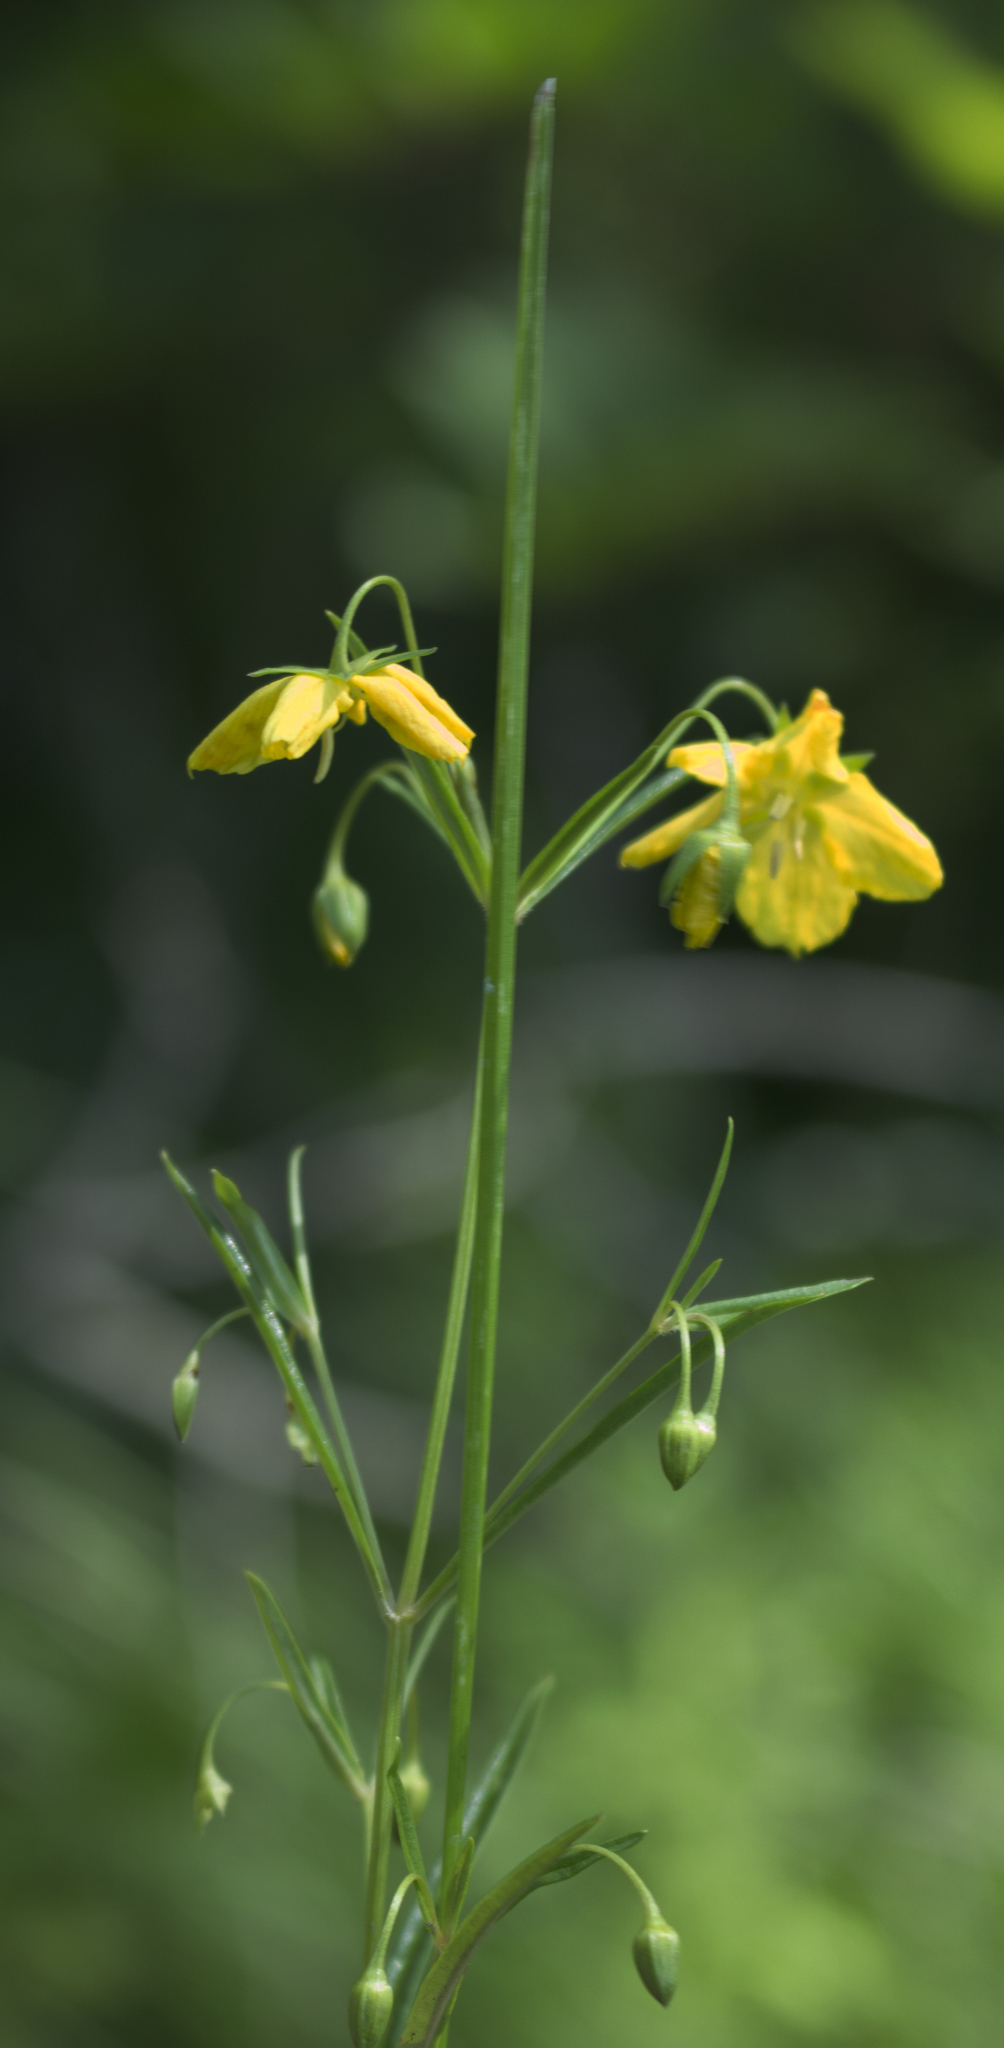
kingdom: Plantae
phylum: Tracheophyta
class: Magnoliopsida
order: Ericales
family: Primulaceae
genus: Lysimachia
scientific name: Lysimachia quadriflora
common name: Four-flowered loosestrife
